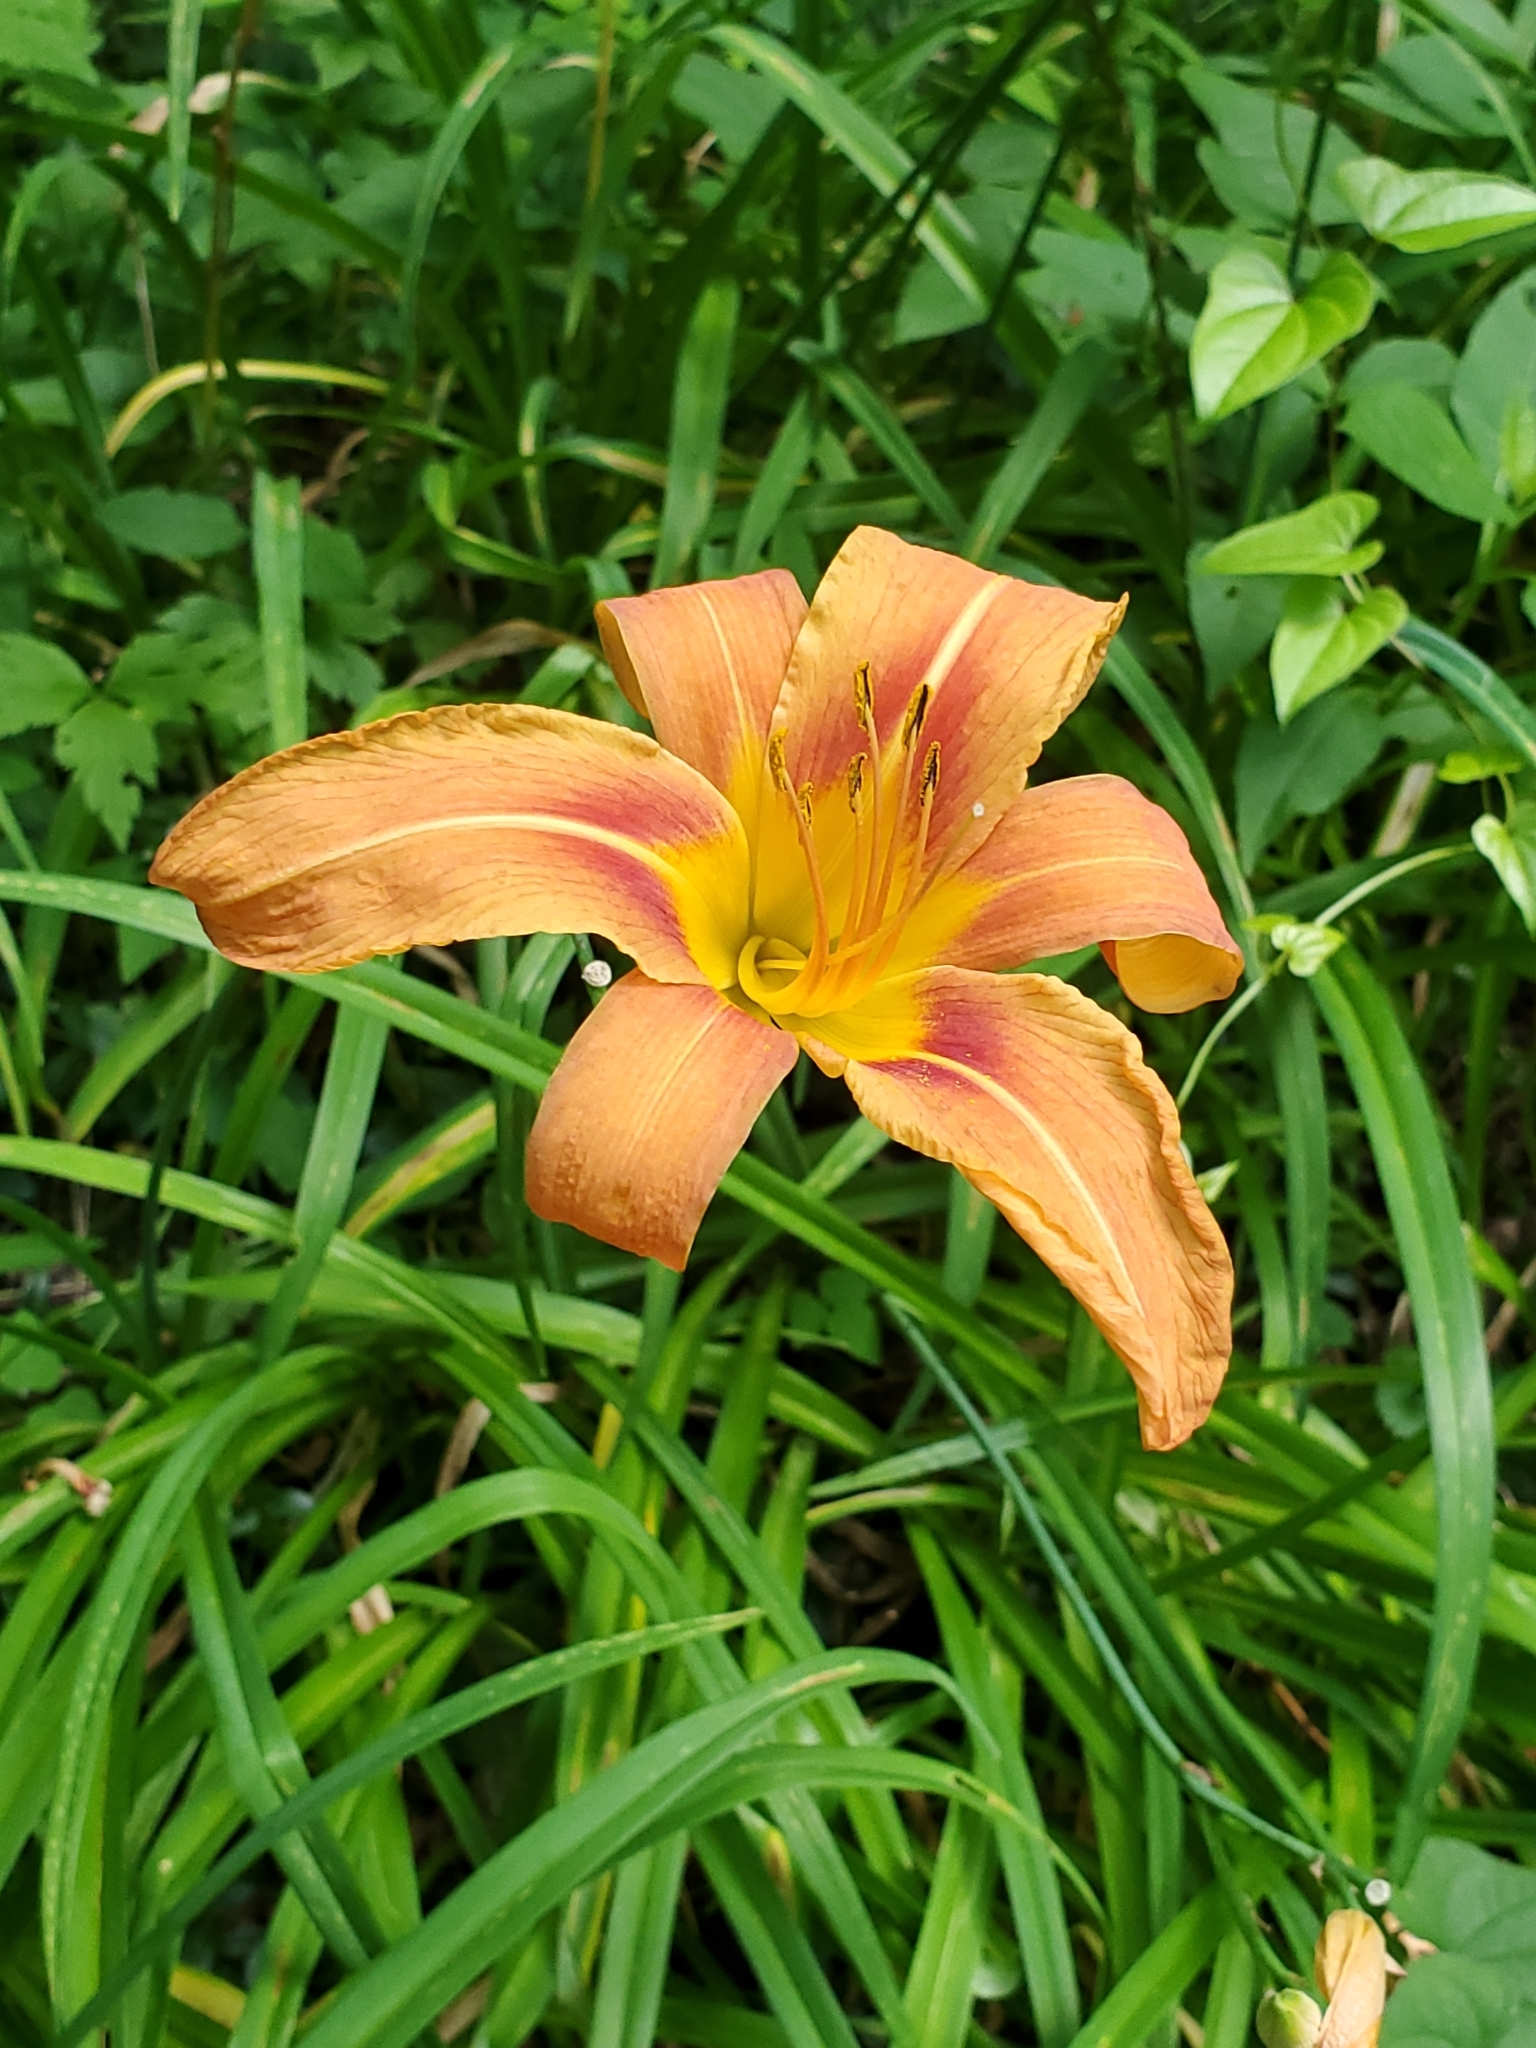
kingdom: Plantae
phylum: Tracheophyta
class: Liliopsida
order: Asparagales
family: Asphodelaceae
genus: Hemerocallis
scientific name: Hemerocallis fulva
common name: Orange day-lily
